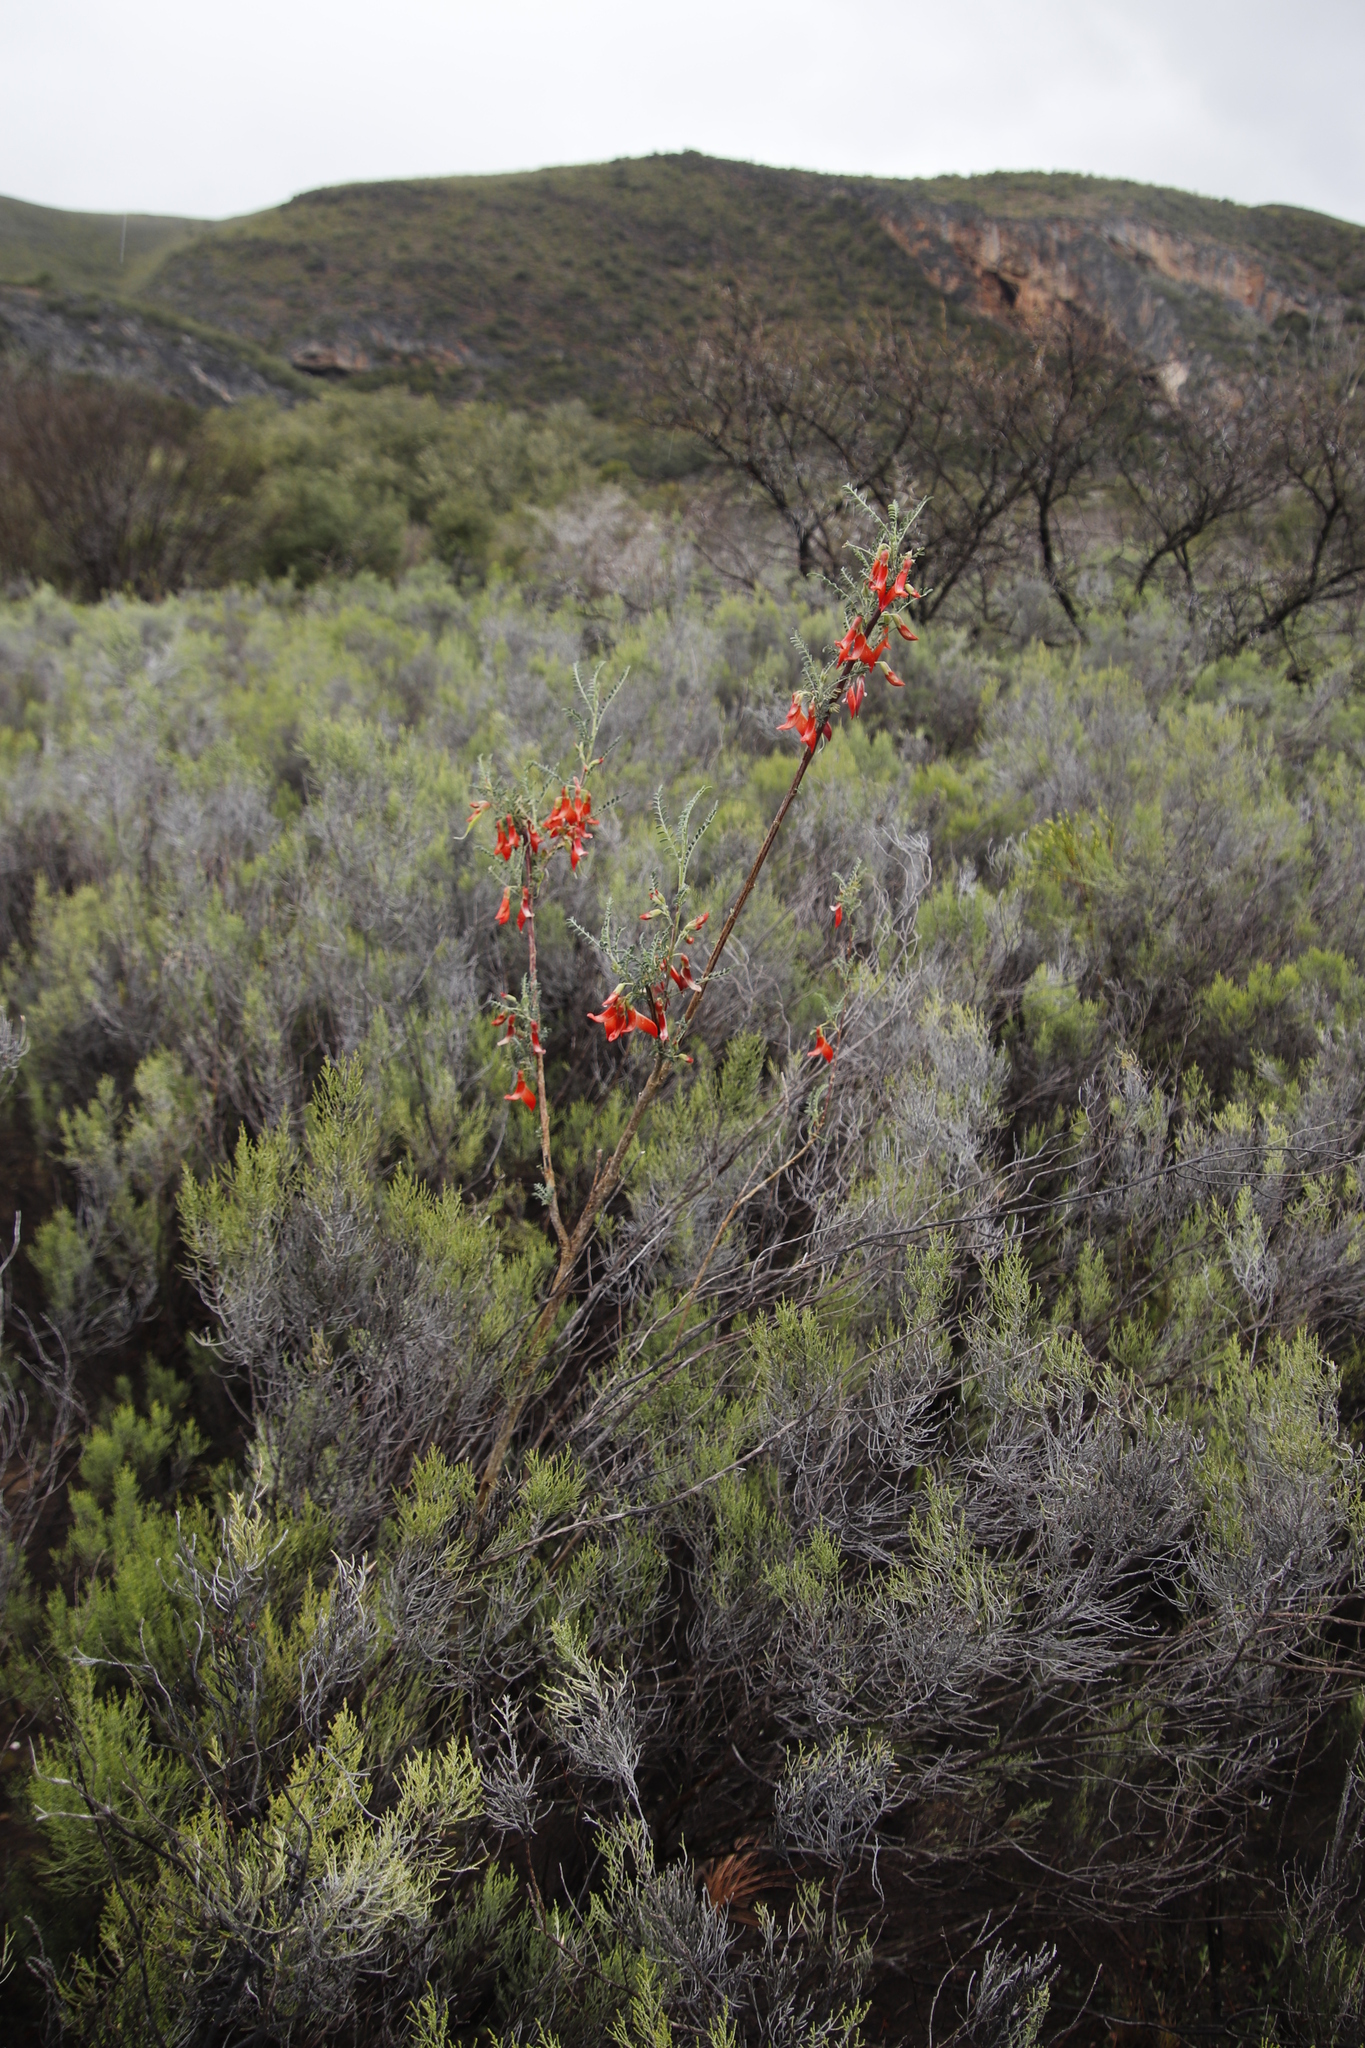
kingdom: Plantae
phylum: Tracheophyta
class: Magnoliopsida
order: Fabales
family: Fabaceae
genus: Lessertia
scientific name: Lessertia frutescens
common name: Balloon-pea
